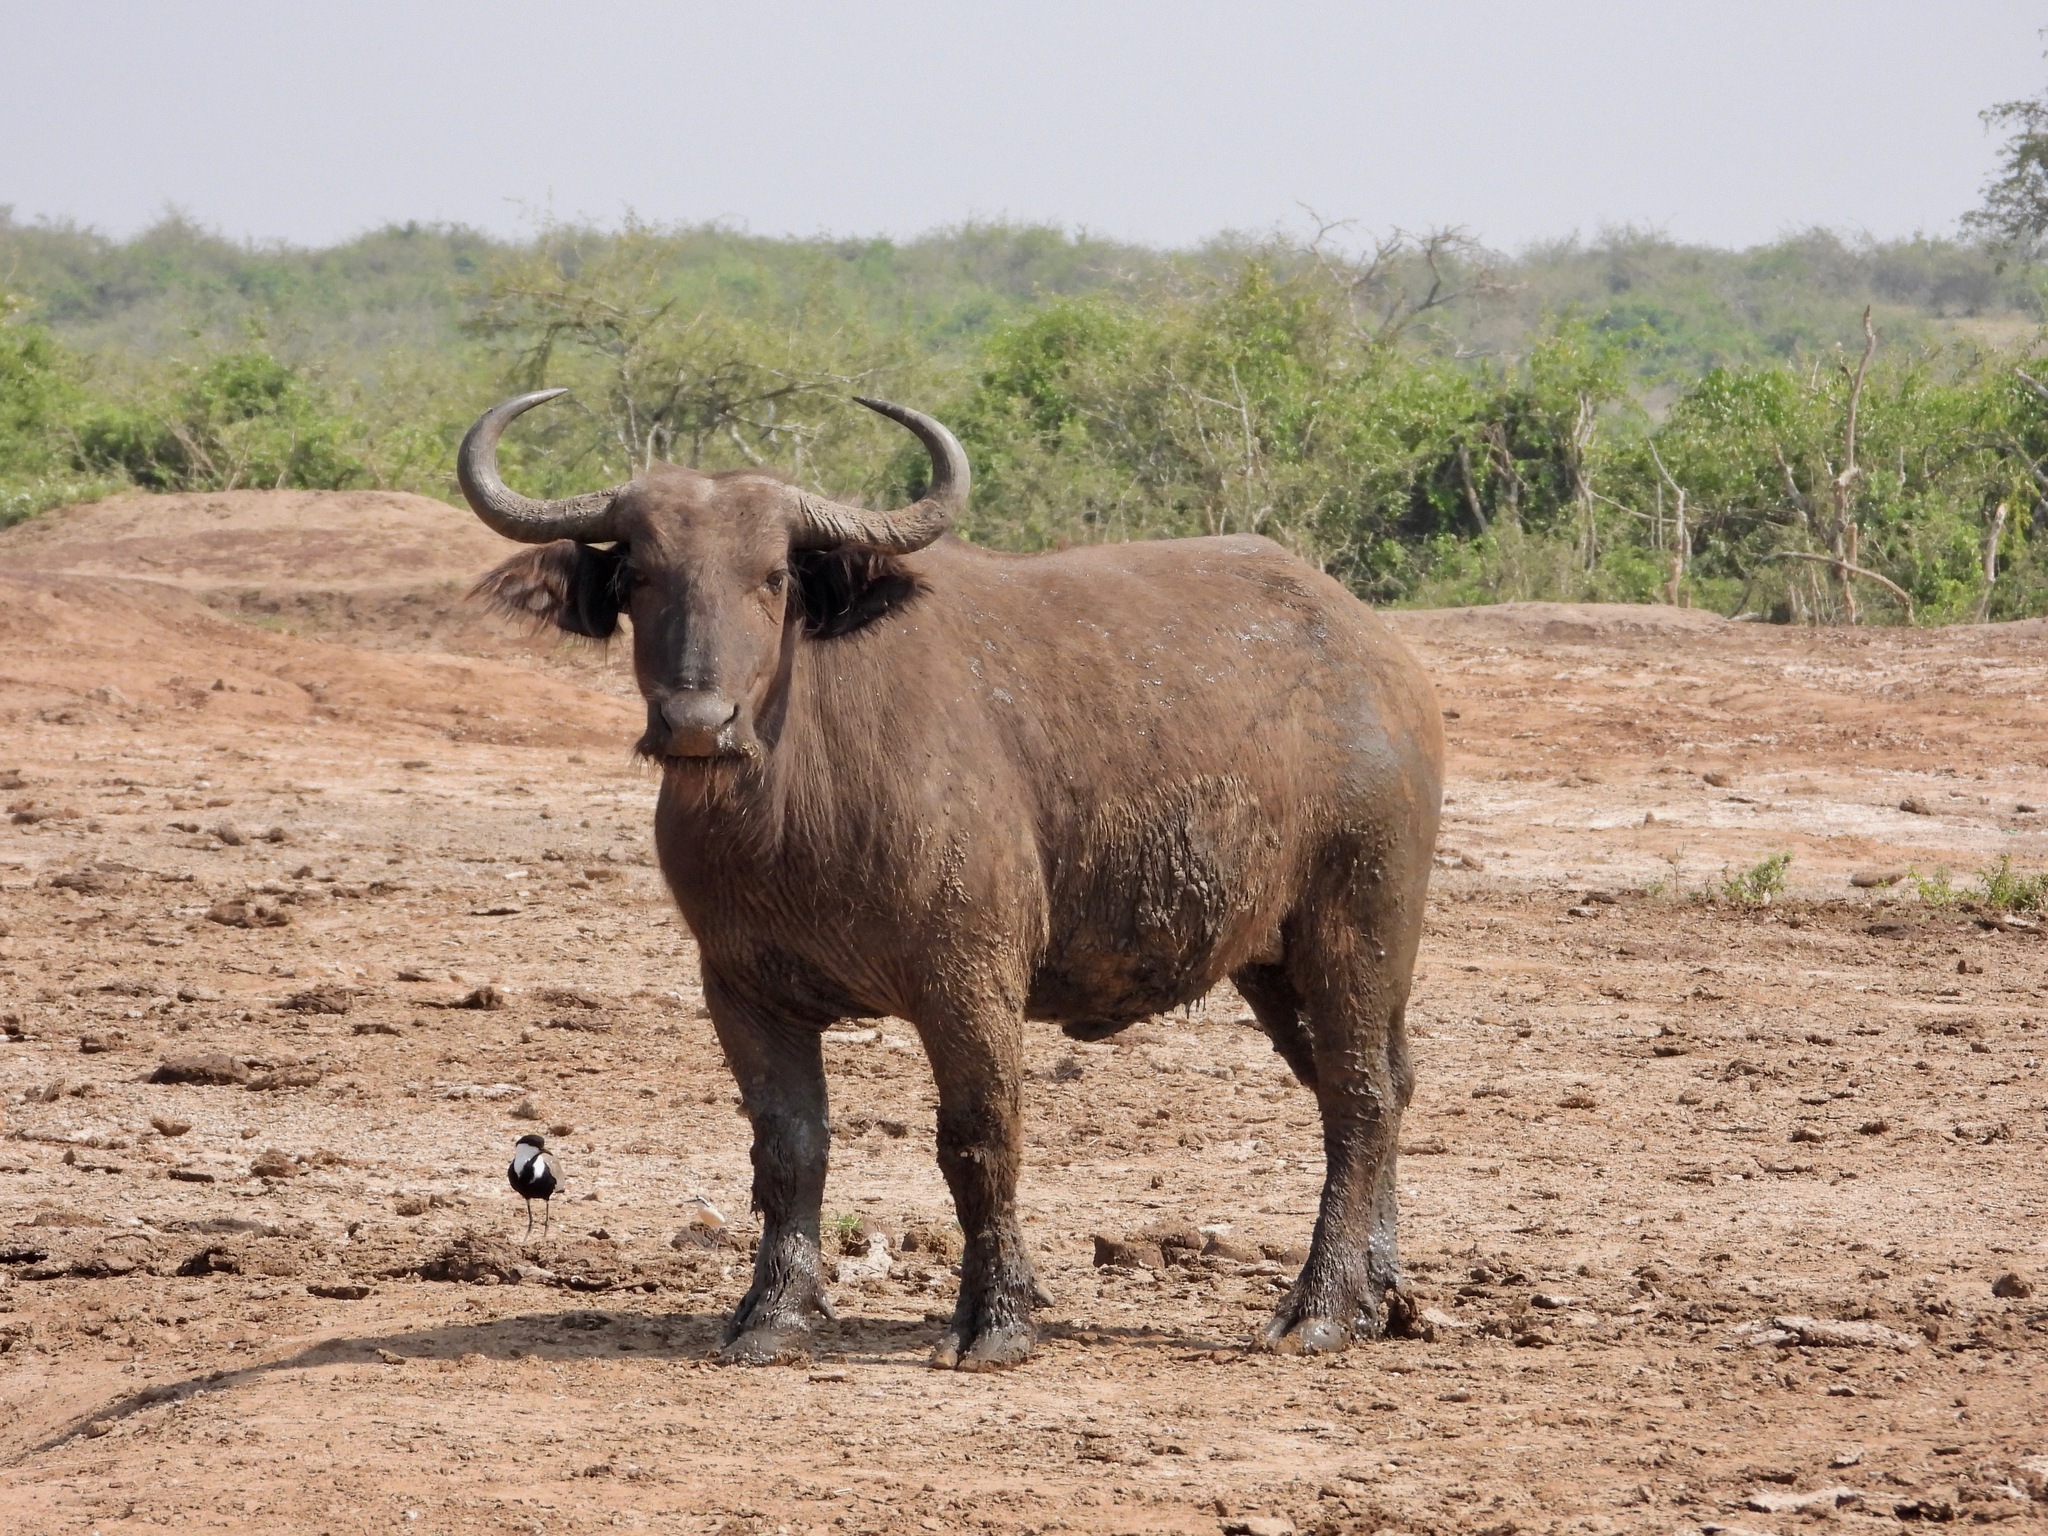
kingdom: Animalia
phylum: Chordata
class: Mammalia
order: Artiodactyla
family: Bovidae
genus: Syncerus
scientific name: Syncerus caffer
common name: African buffalo
